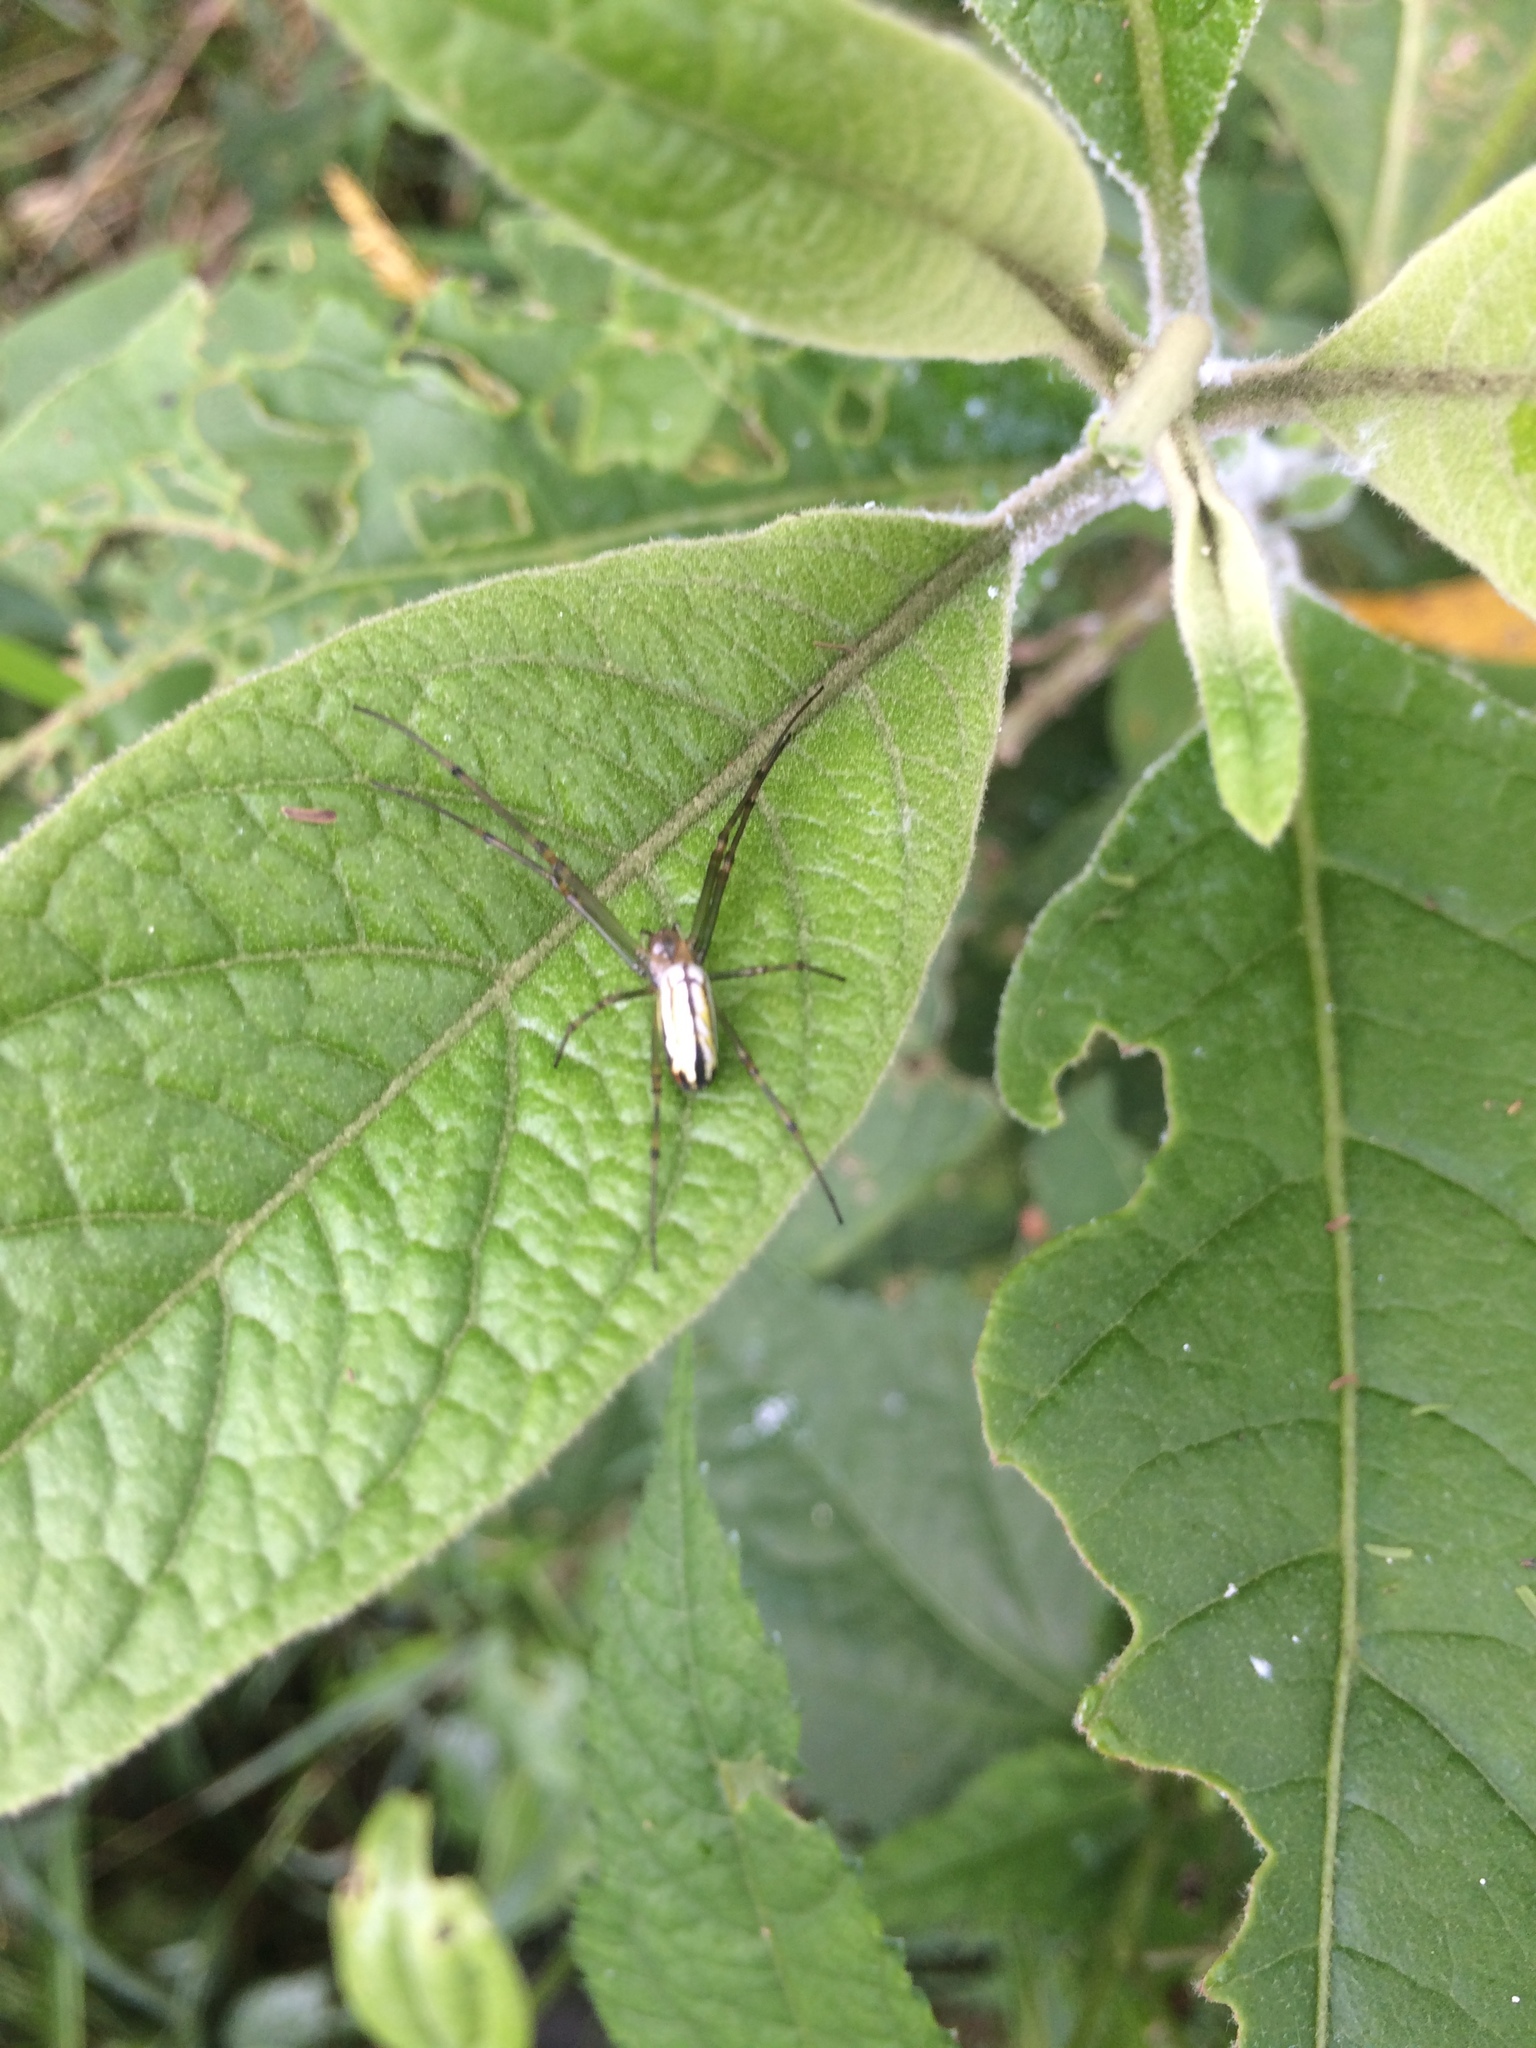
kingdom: Animalia
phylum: Arthropoda
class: Arachnida
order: Araneae
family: Tetragnathidae
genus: Leucauge
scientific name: Leucauge argyrobapta
